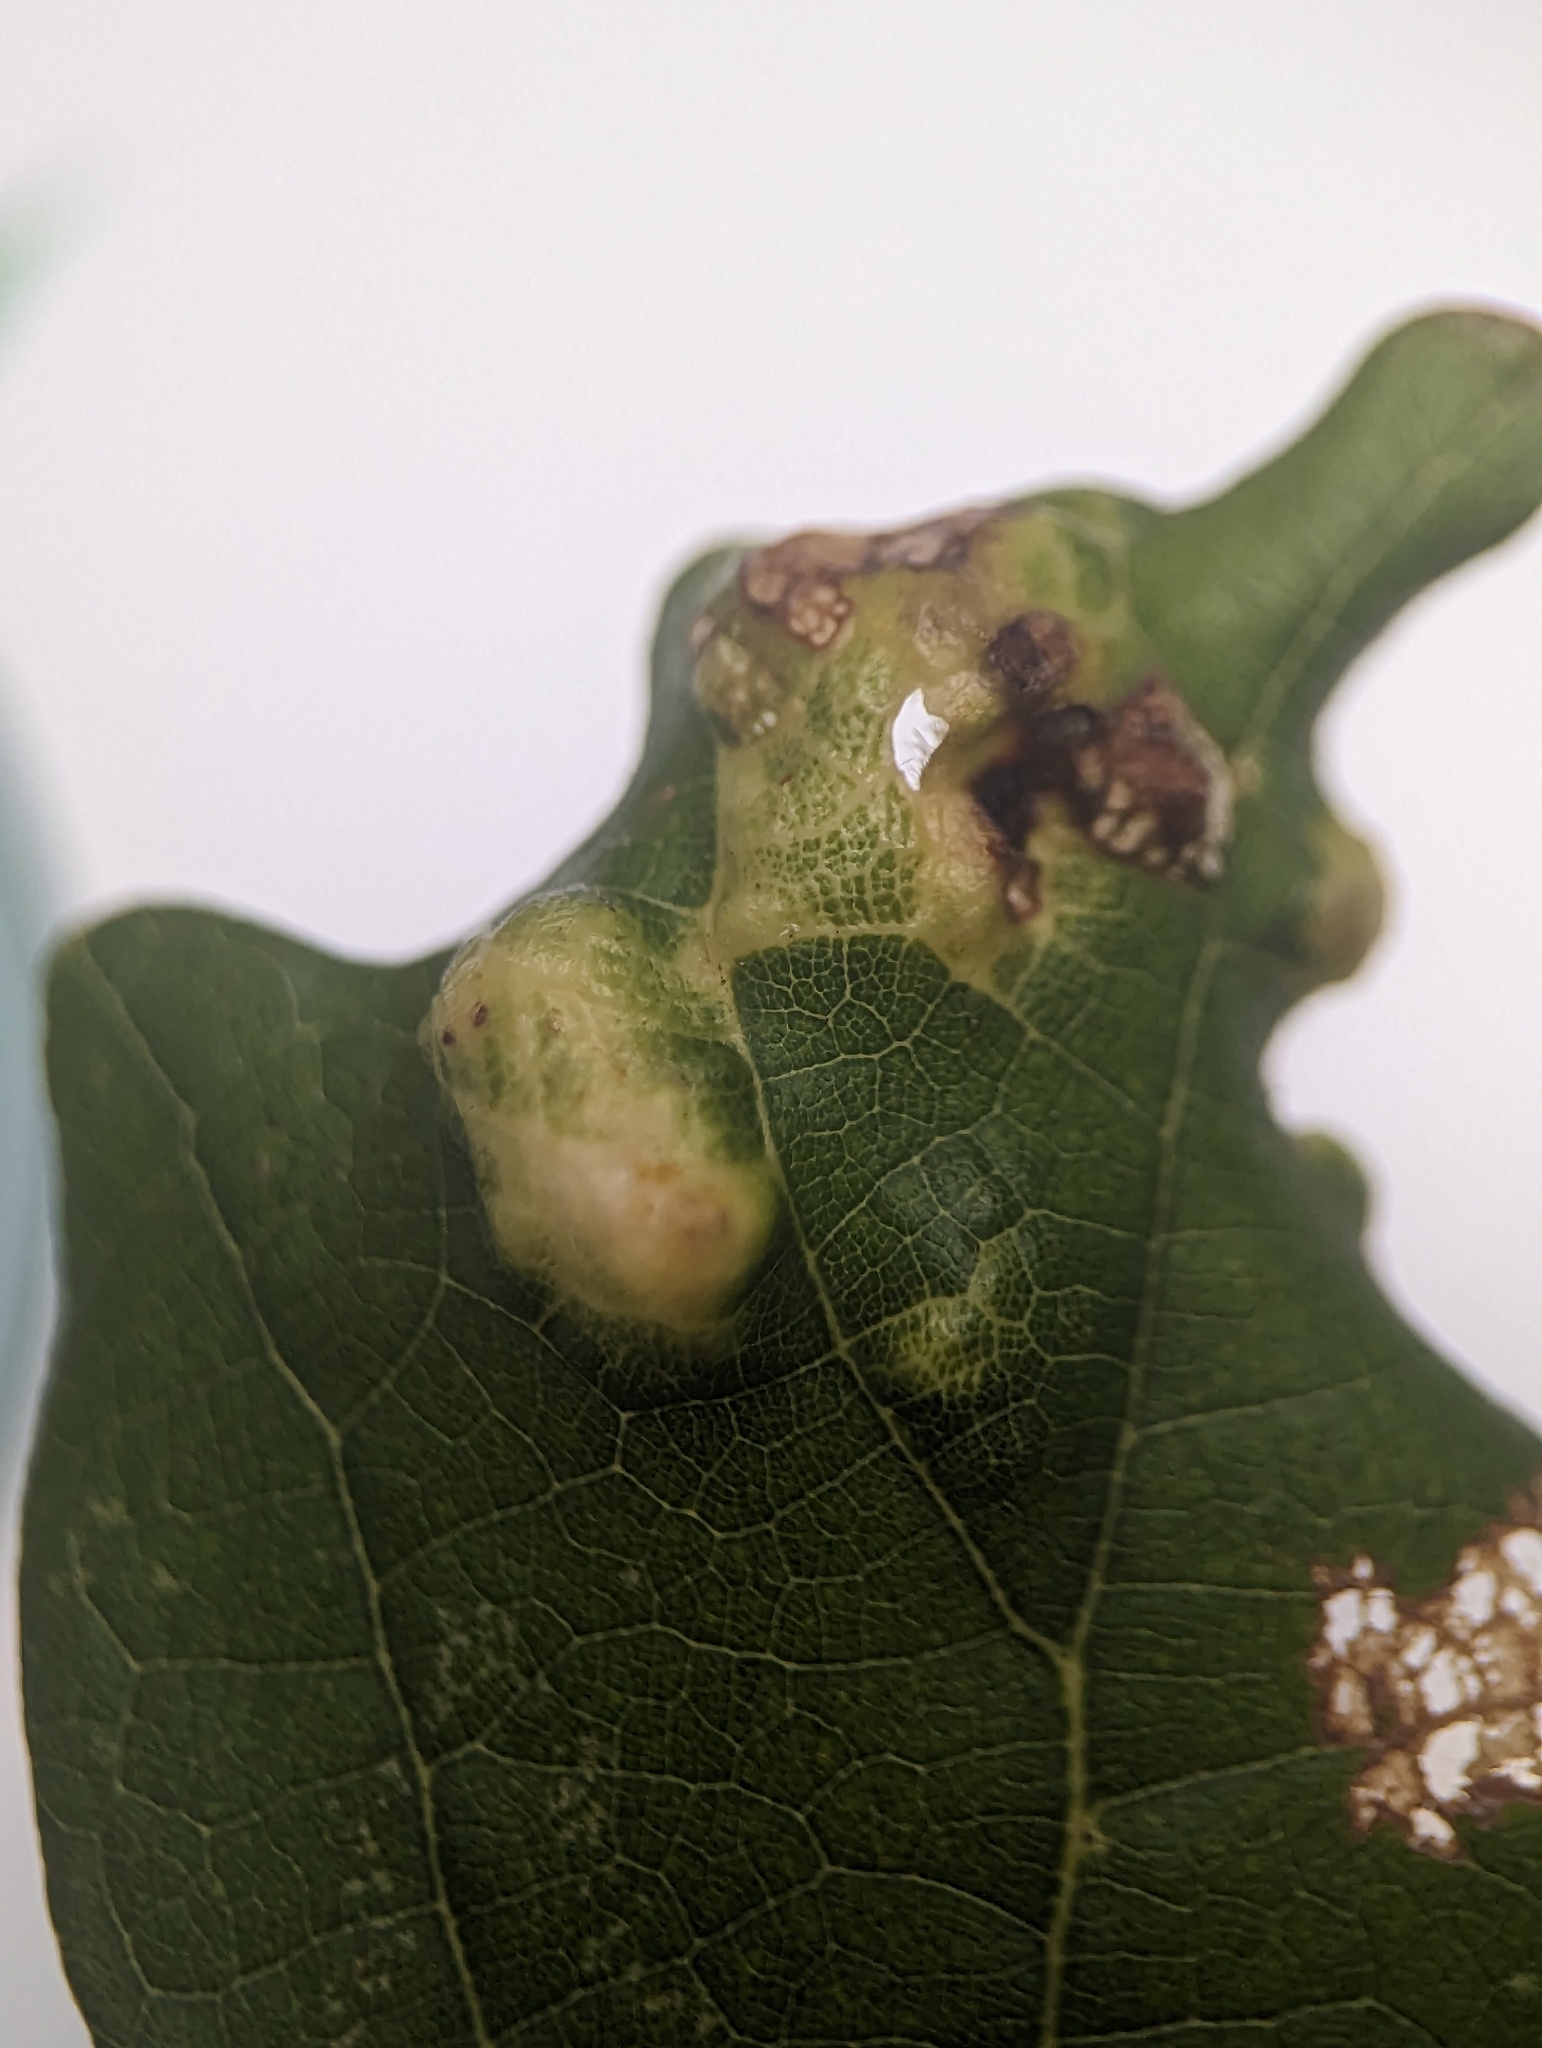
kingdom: Animalia
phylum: Arthropoda
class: Arachnida
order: Trombidiformes
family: Eriophyidae
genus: Aceria
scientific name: Aceria quercina
